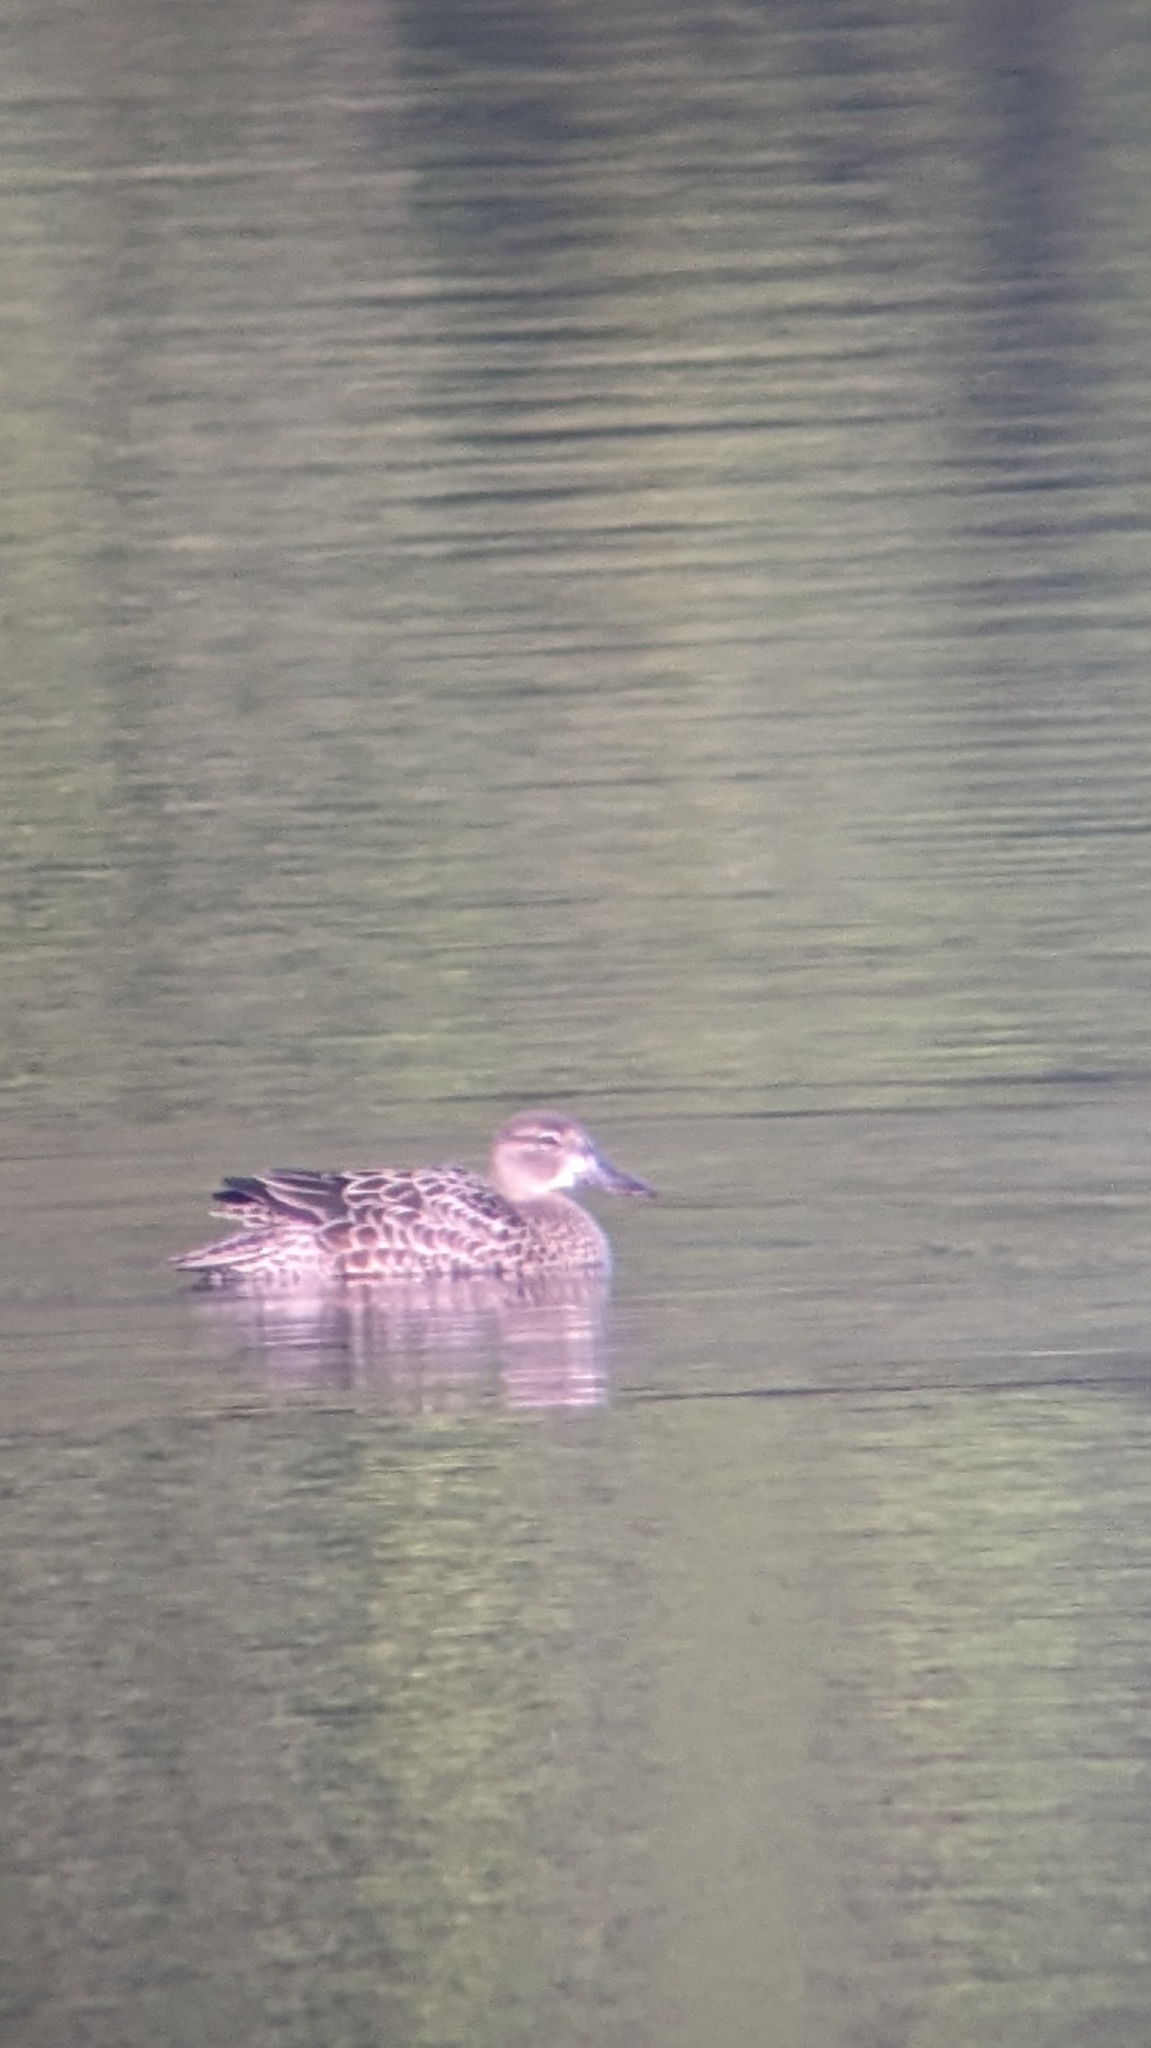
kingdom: Animalia
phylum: Chordata
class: Aves
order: Anseriformes
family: Anatidae
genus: Spatula
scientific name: Spatula discors
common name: Blue-winged teal
